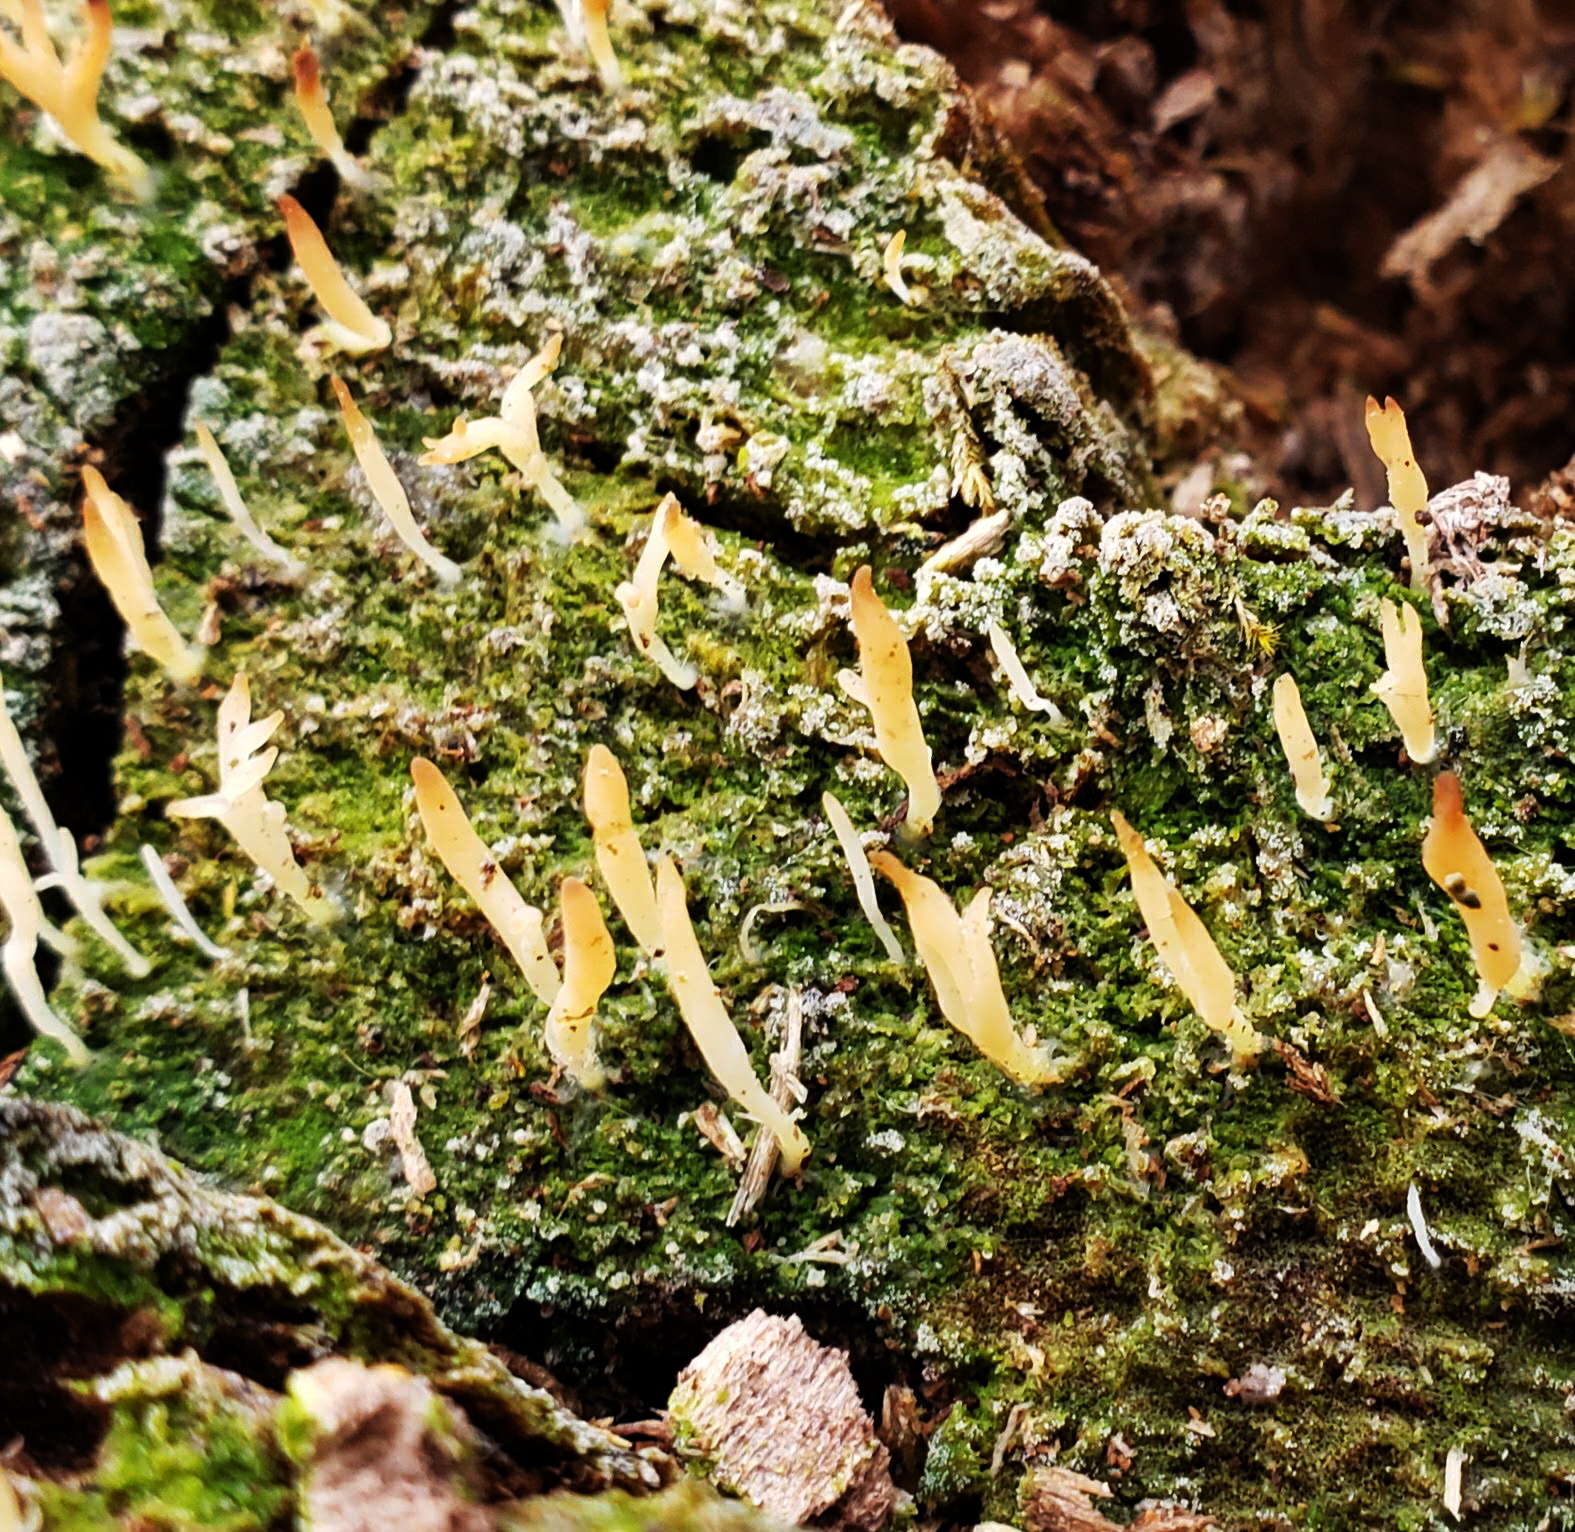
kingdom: Fungi
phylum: Basidiomycota
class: Agaricomycetes
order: Cantharellales
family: Hydnaceae
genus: Multiclavula
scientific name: Multiclavula mucida
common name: White green-algae coral
